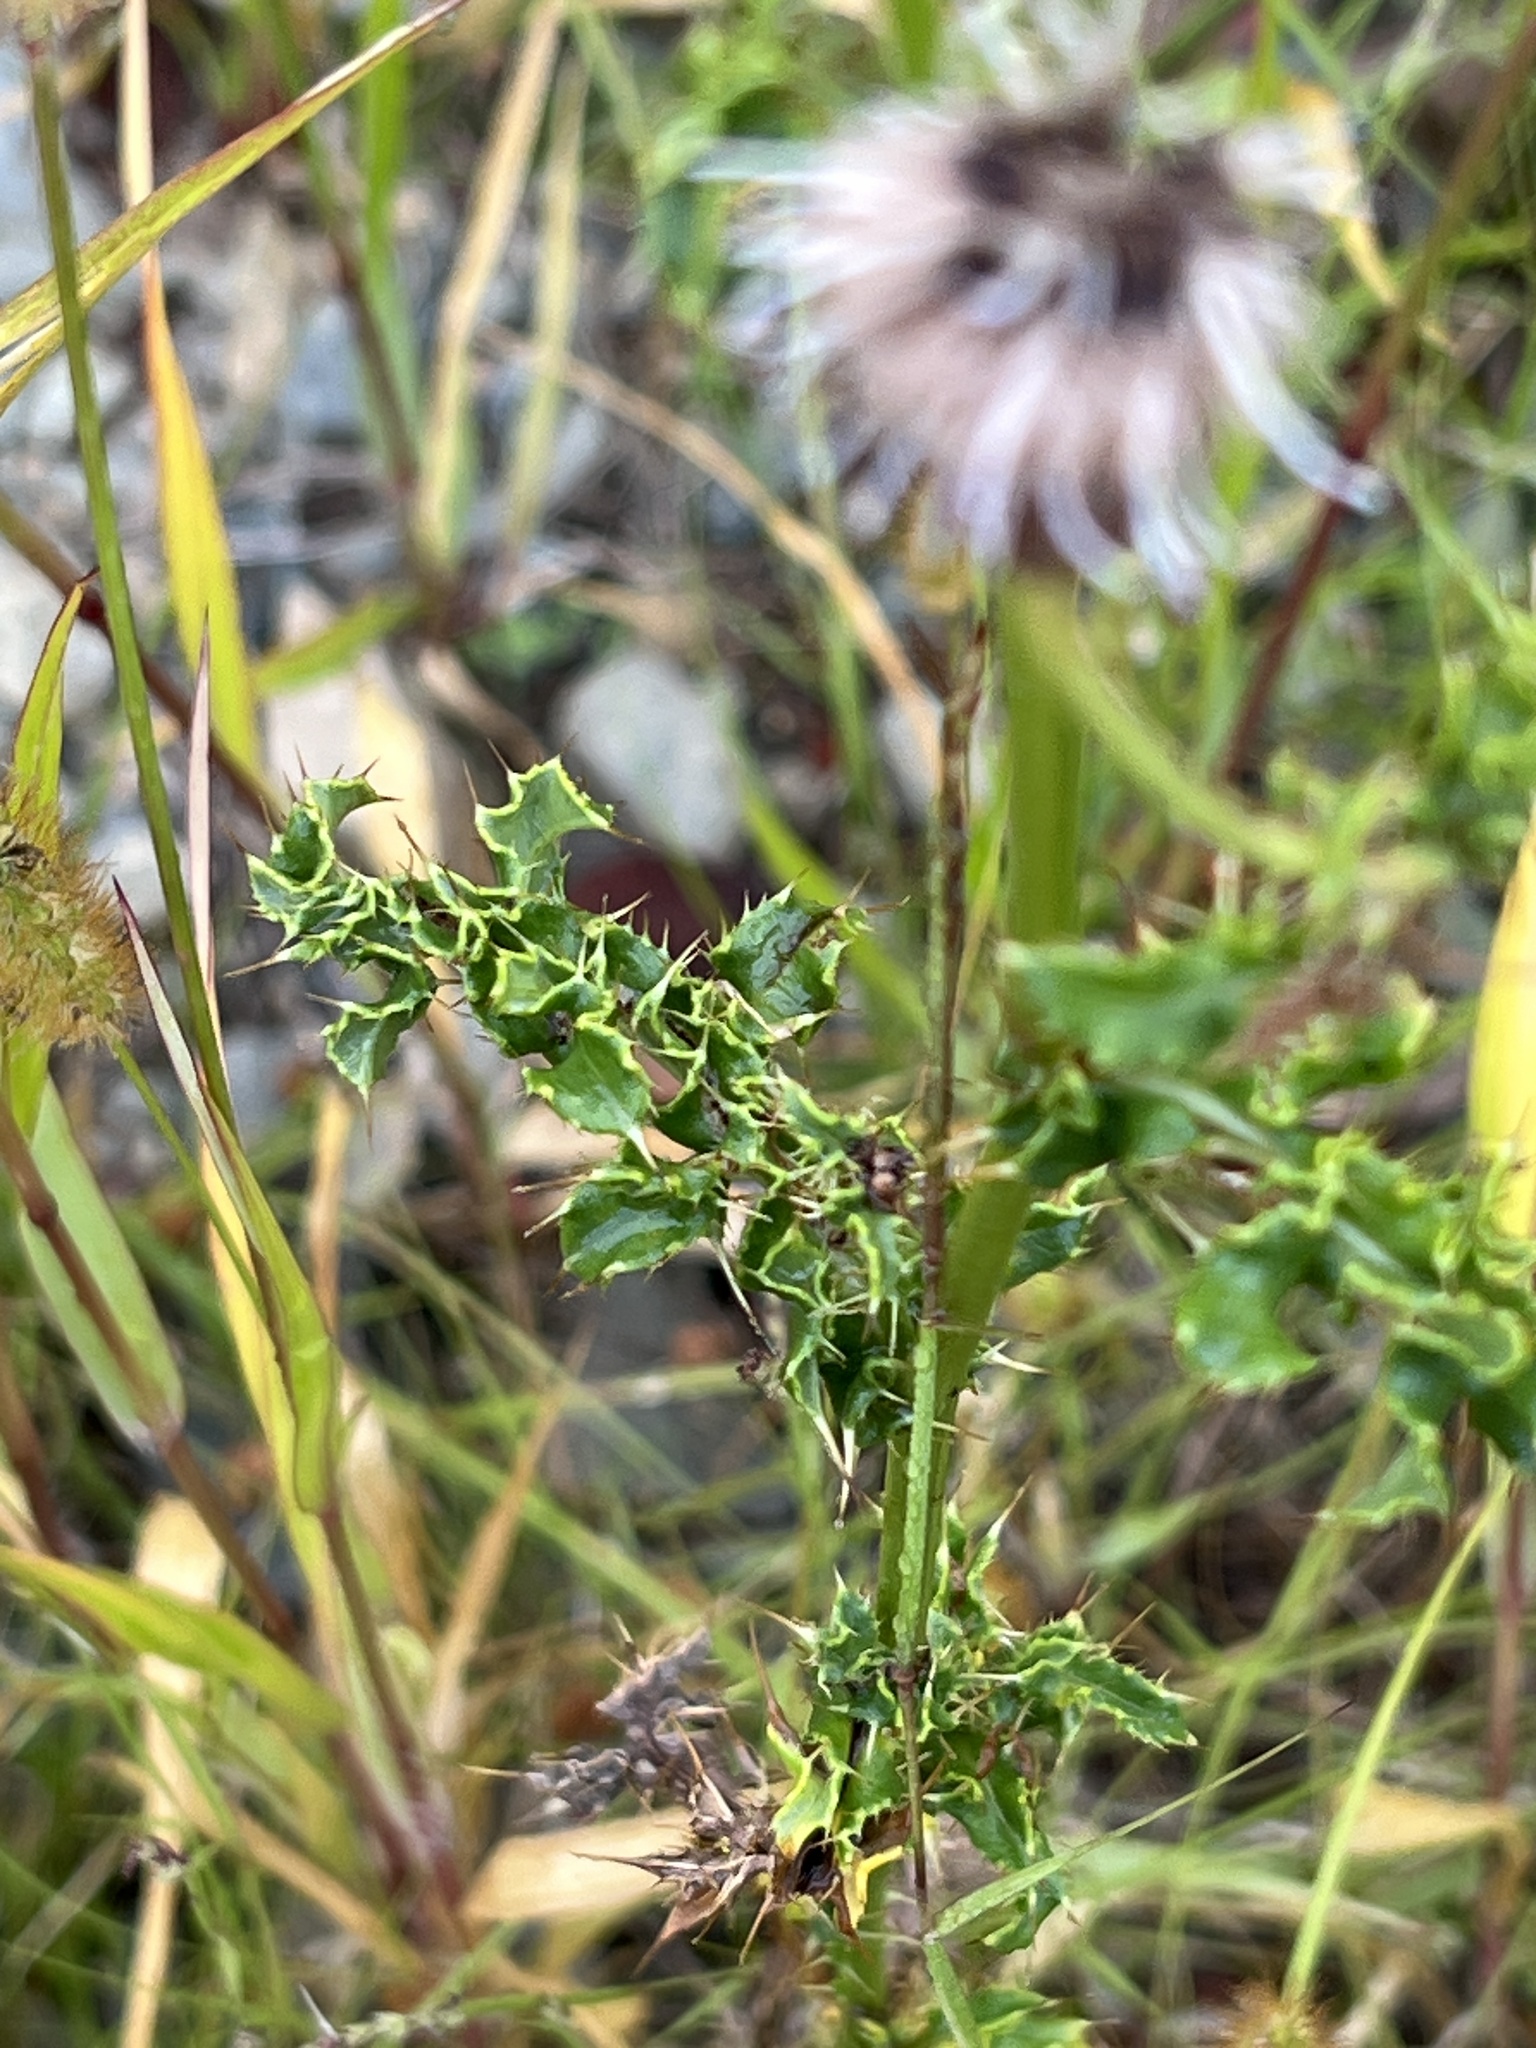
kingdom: Plantae
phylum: Tracheophyta
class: Magnoliopsida
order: Asterales
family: Asteraceae
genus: Cirsium
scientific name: Cirsium arvense
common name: Creeping thistle
